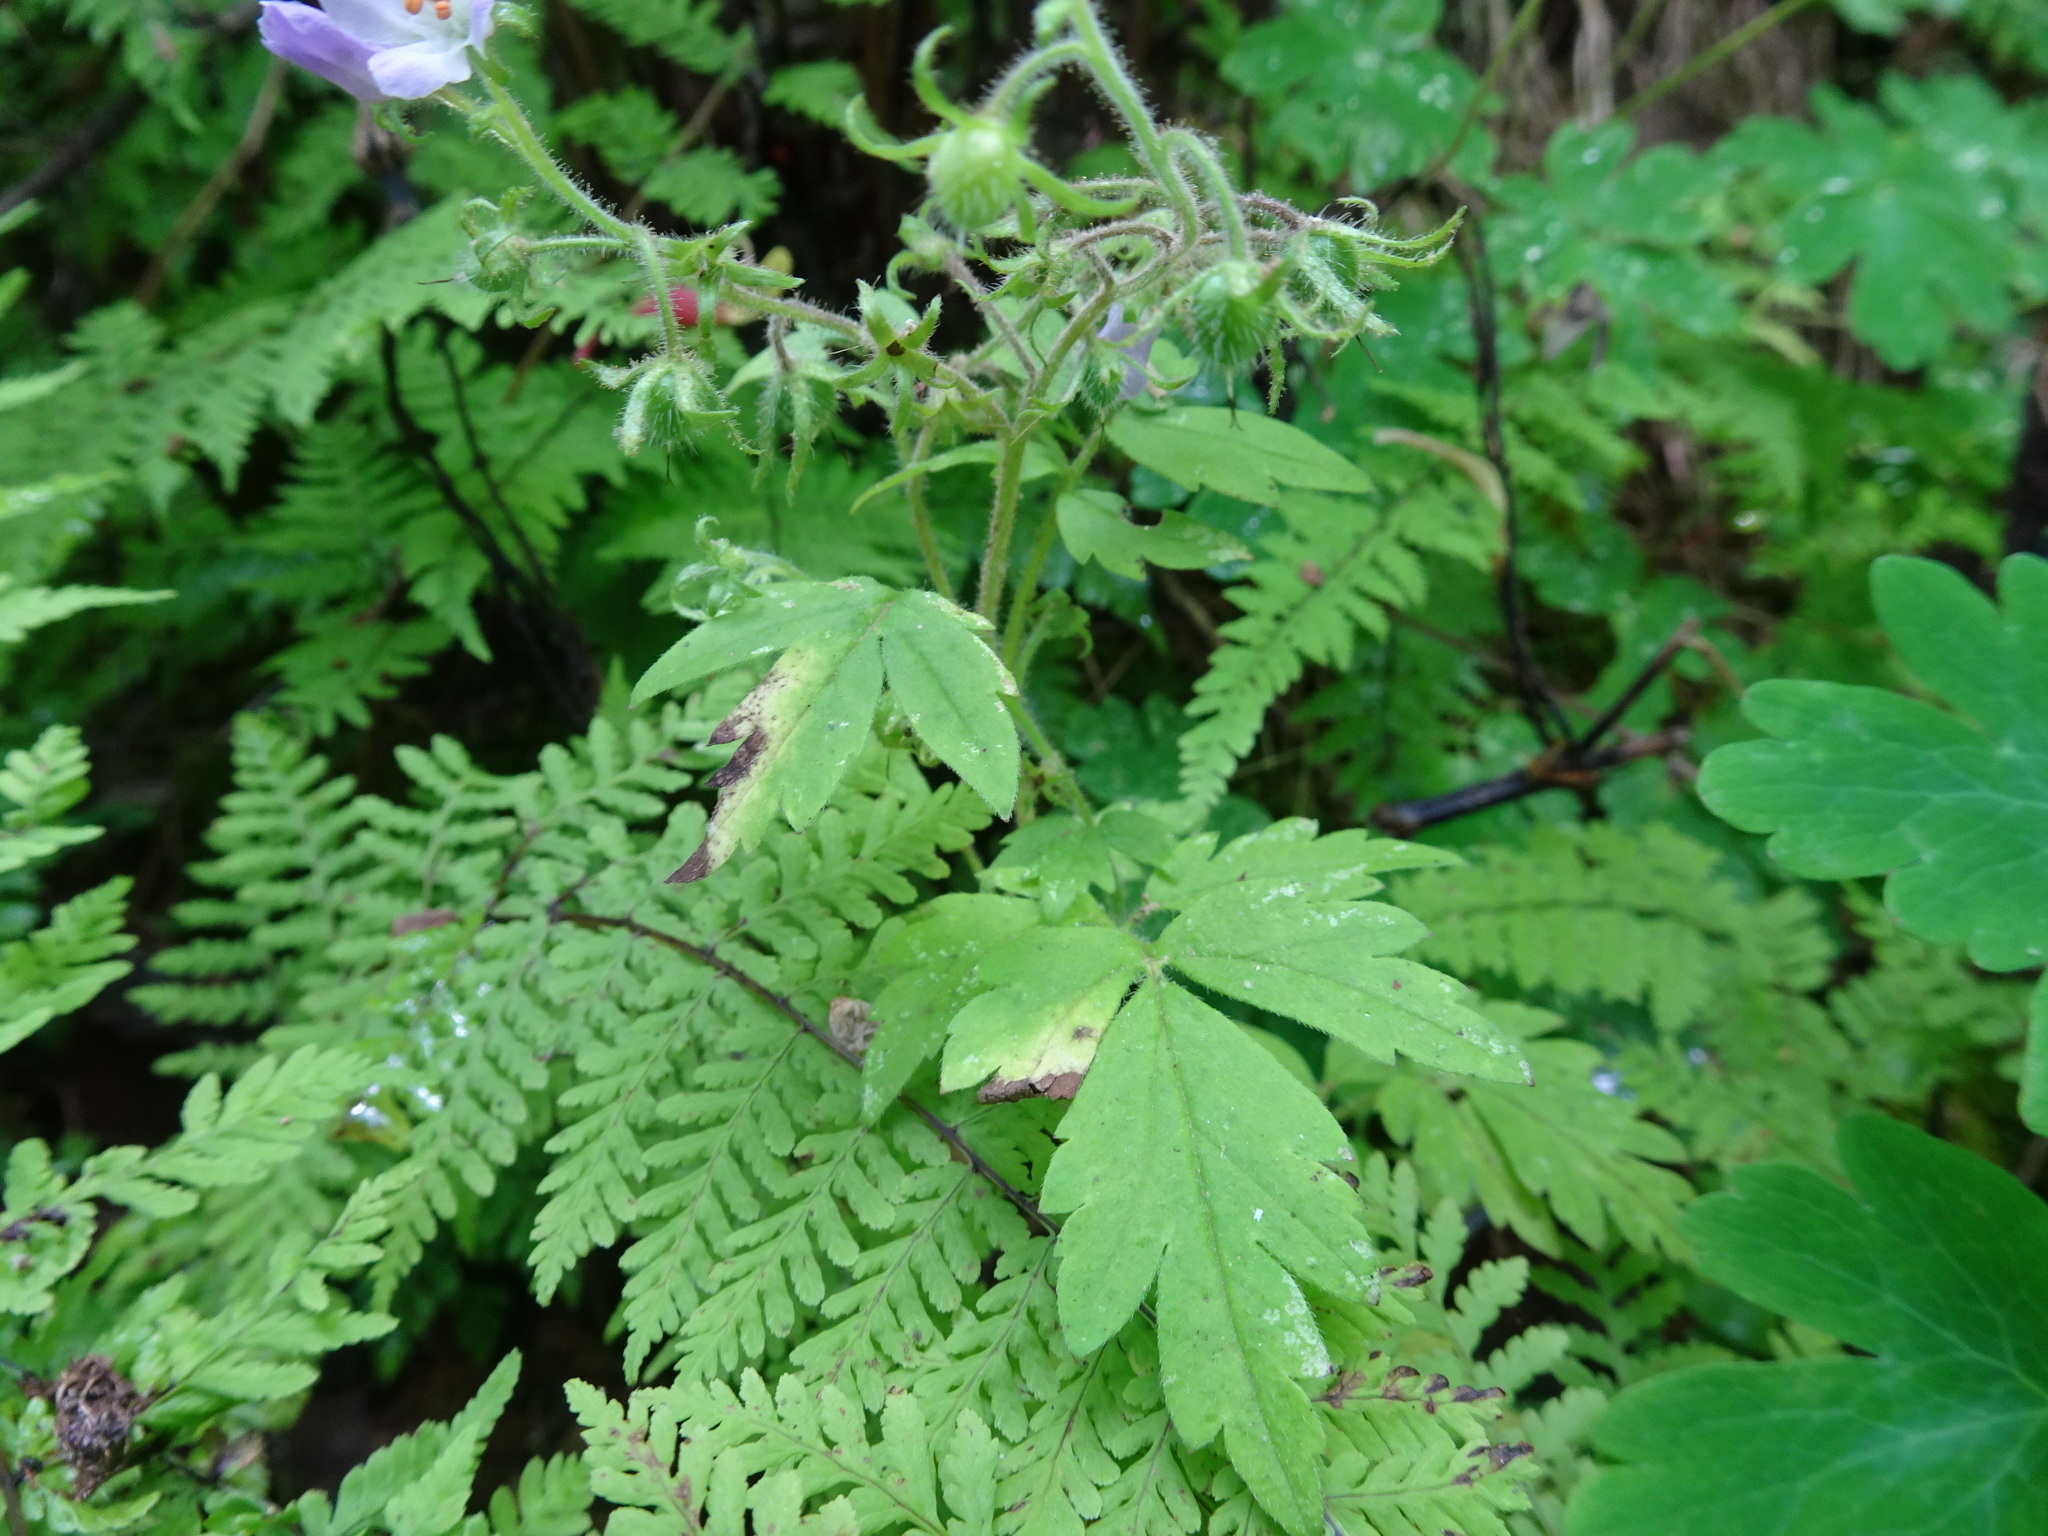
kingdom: Plantae
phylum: Tracheophyta
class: Magnoliopsida
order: Boraginales
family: Hydrophyllaceae
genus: Phacelia
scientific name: Phacelia bipinnatifida
